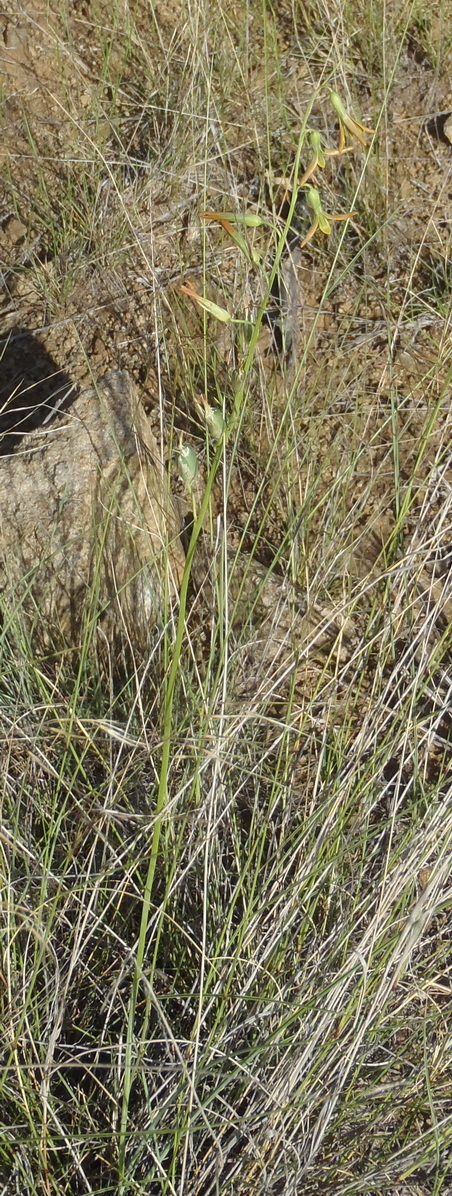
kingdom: Plantae
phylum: Tracheophyta
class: Liliopsida
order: Asparagales
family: Asparagaceae
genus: Dipcadi
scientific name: Dipcadi ciliare
